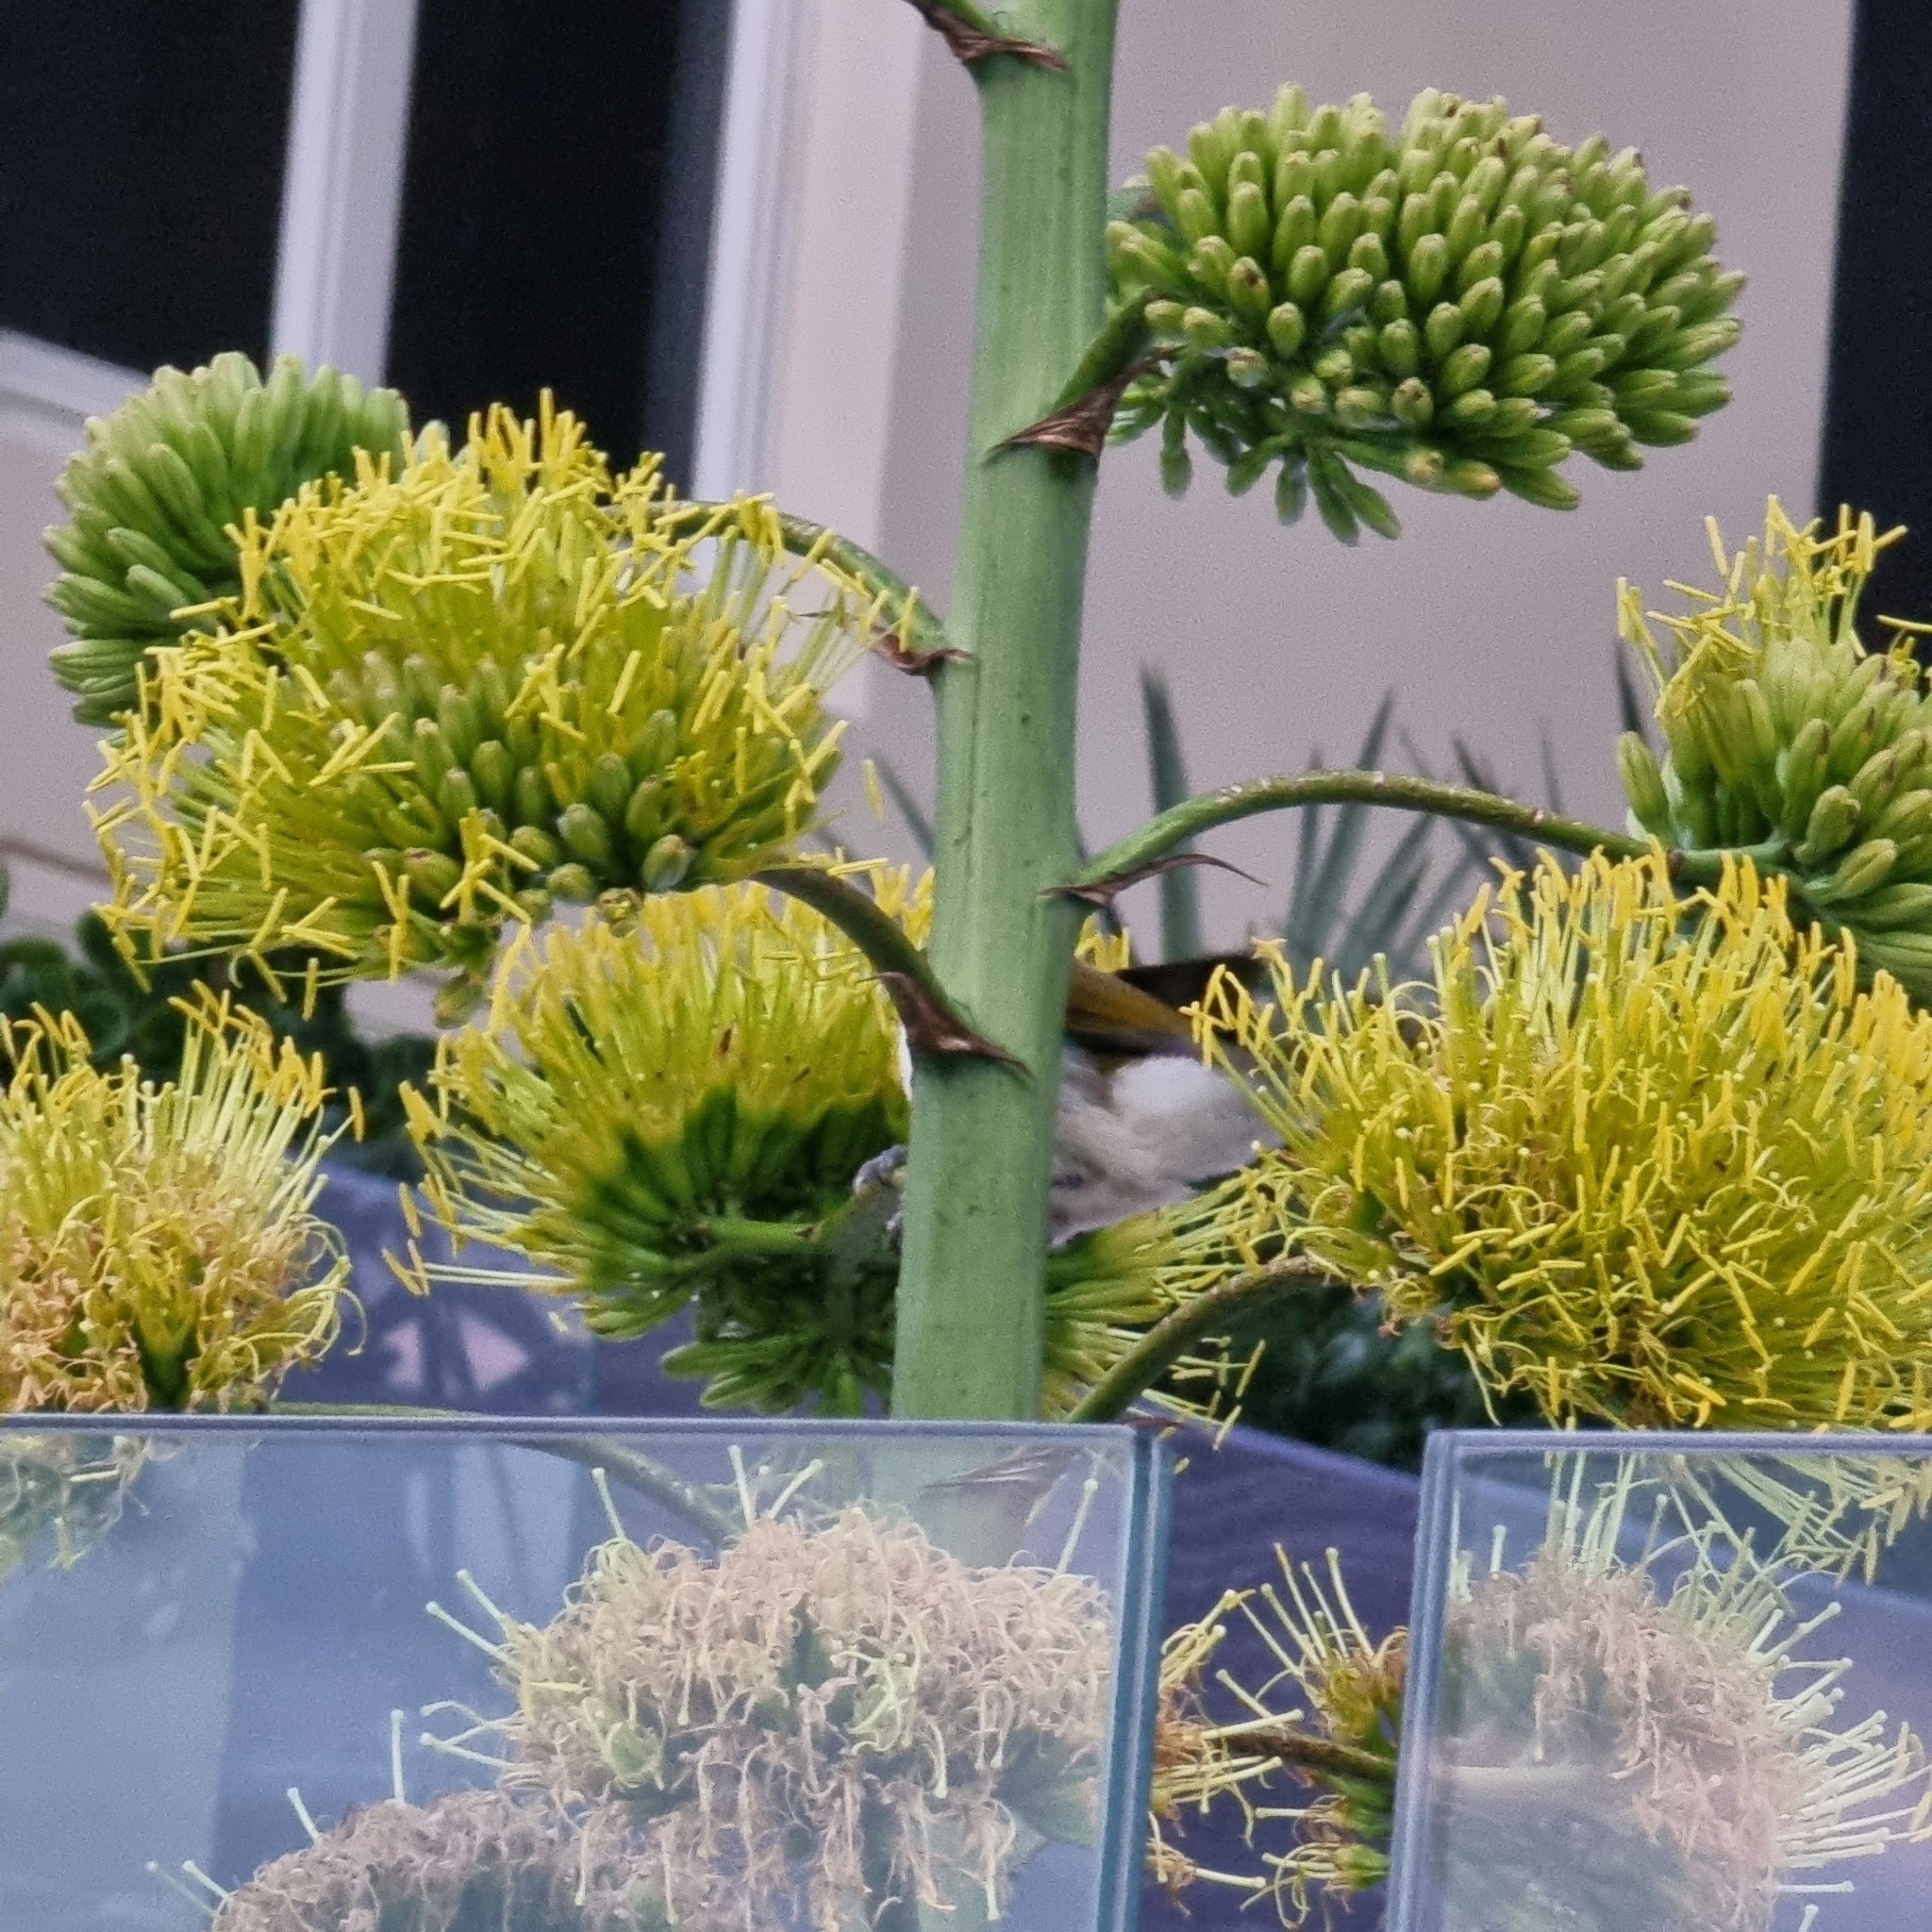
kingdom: Animalia
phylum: Chordata
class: Aves
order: Passeriformes
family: Meliphagidae
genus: Entomyzon
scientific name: Entomyzon cyanotis
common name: Blue-faced honeyeater
